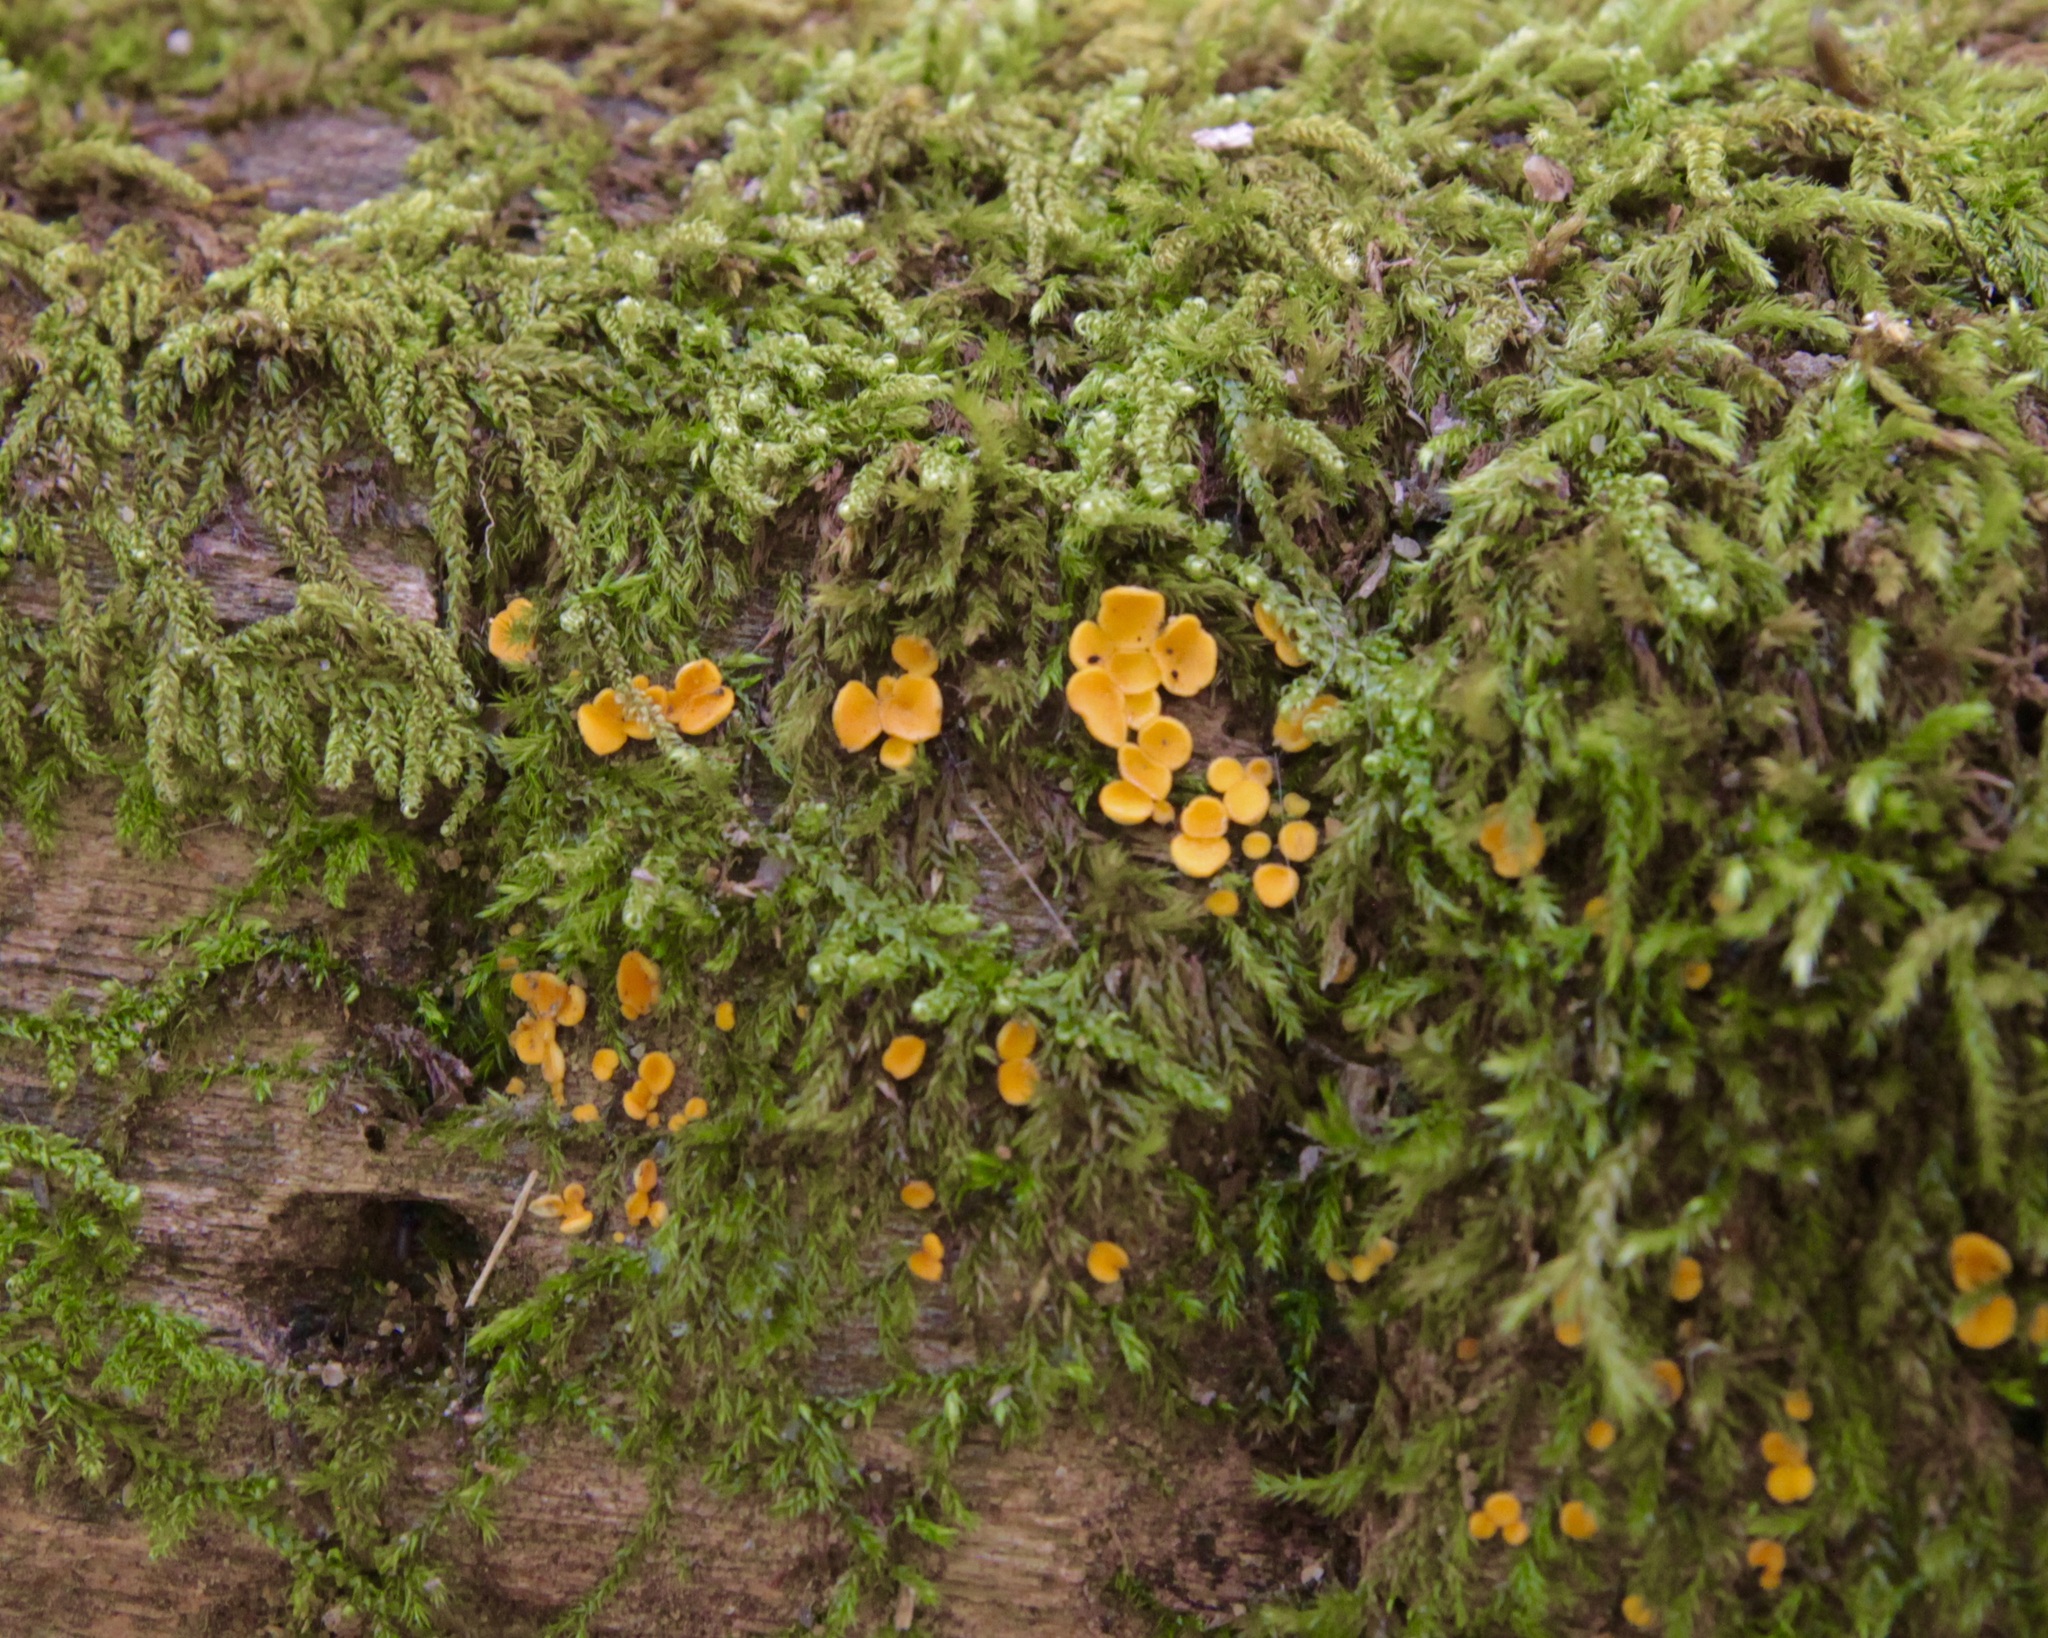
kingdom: Fungi
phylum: Ascomycota
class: Leotiomycetes
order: Helotiales
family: Pezizellaceae
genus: Calycina
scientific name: Calycina citrina
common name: Yellow fairy cups
